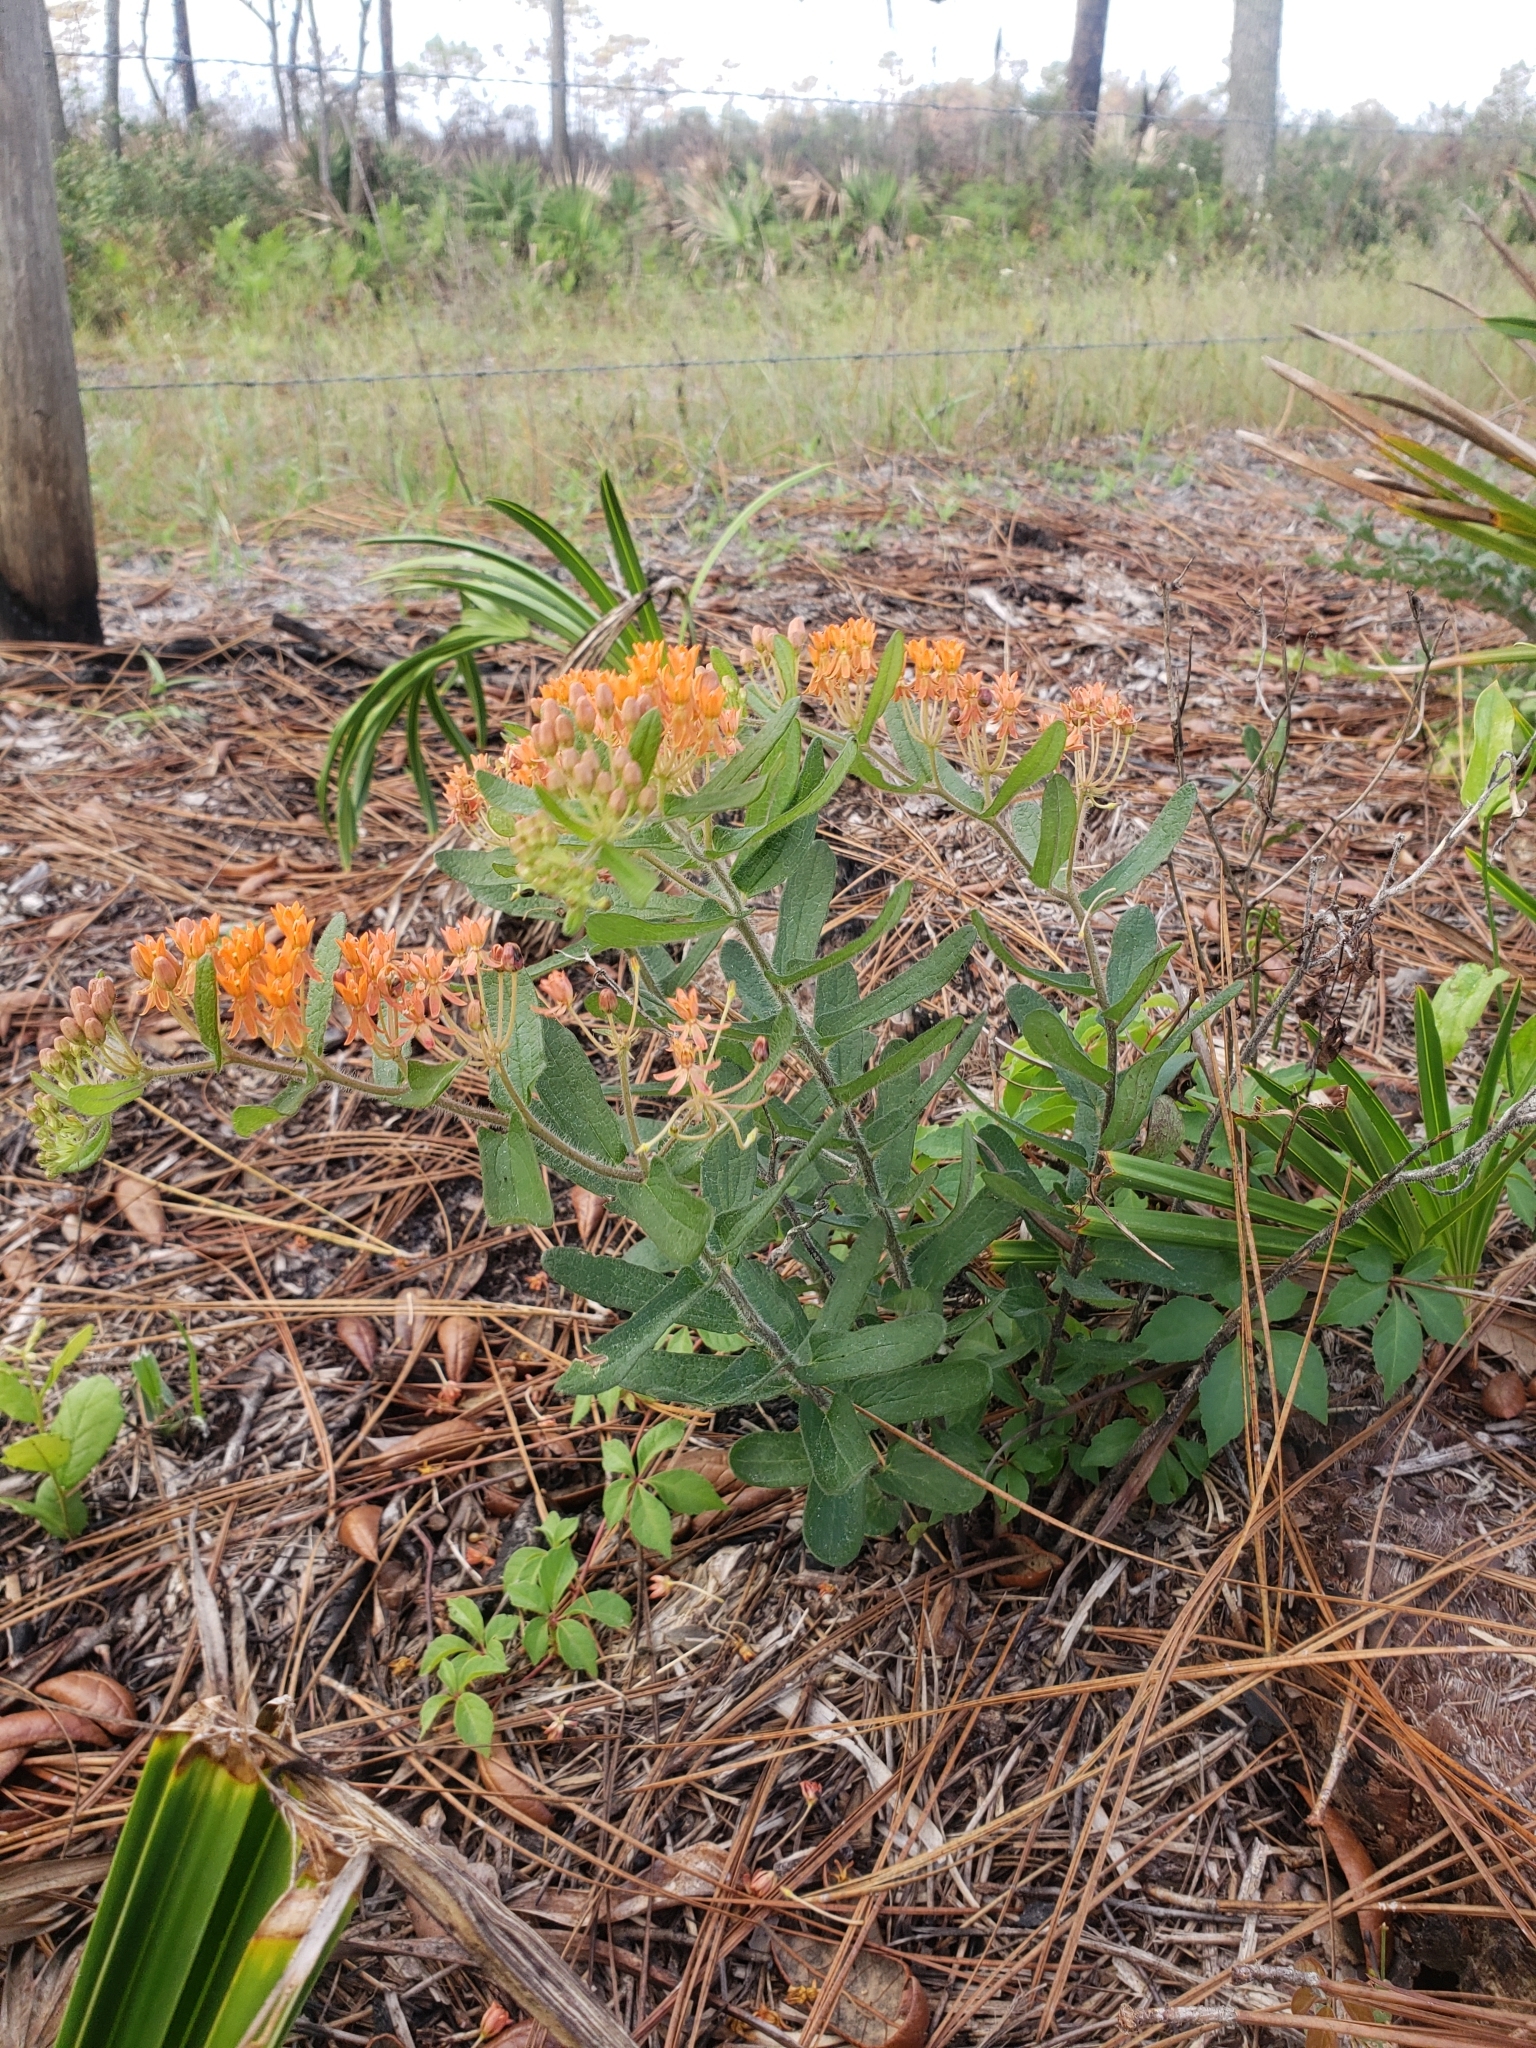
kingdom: Plantae
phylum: Tracheophyta
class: Magnoliopsida
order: Gentianales
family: Apocynaceae
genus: Asclepias
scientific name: Asclepias tuberosa
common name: Butterfly milkweed
